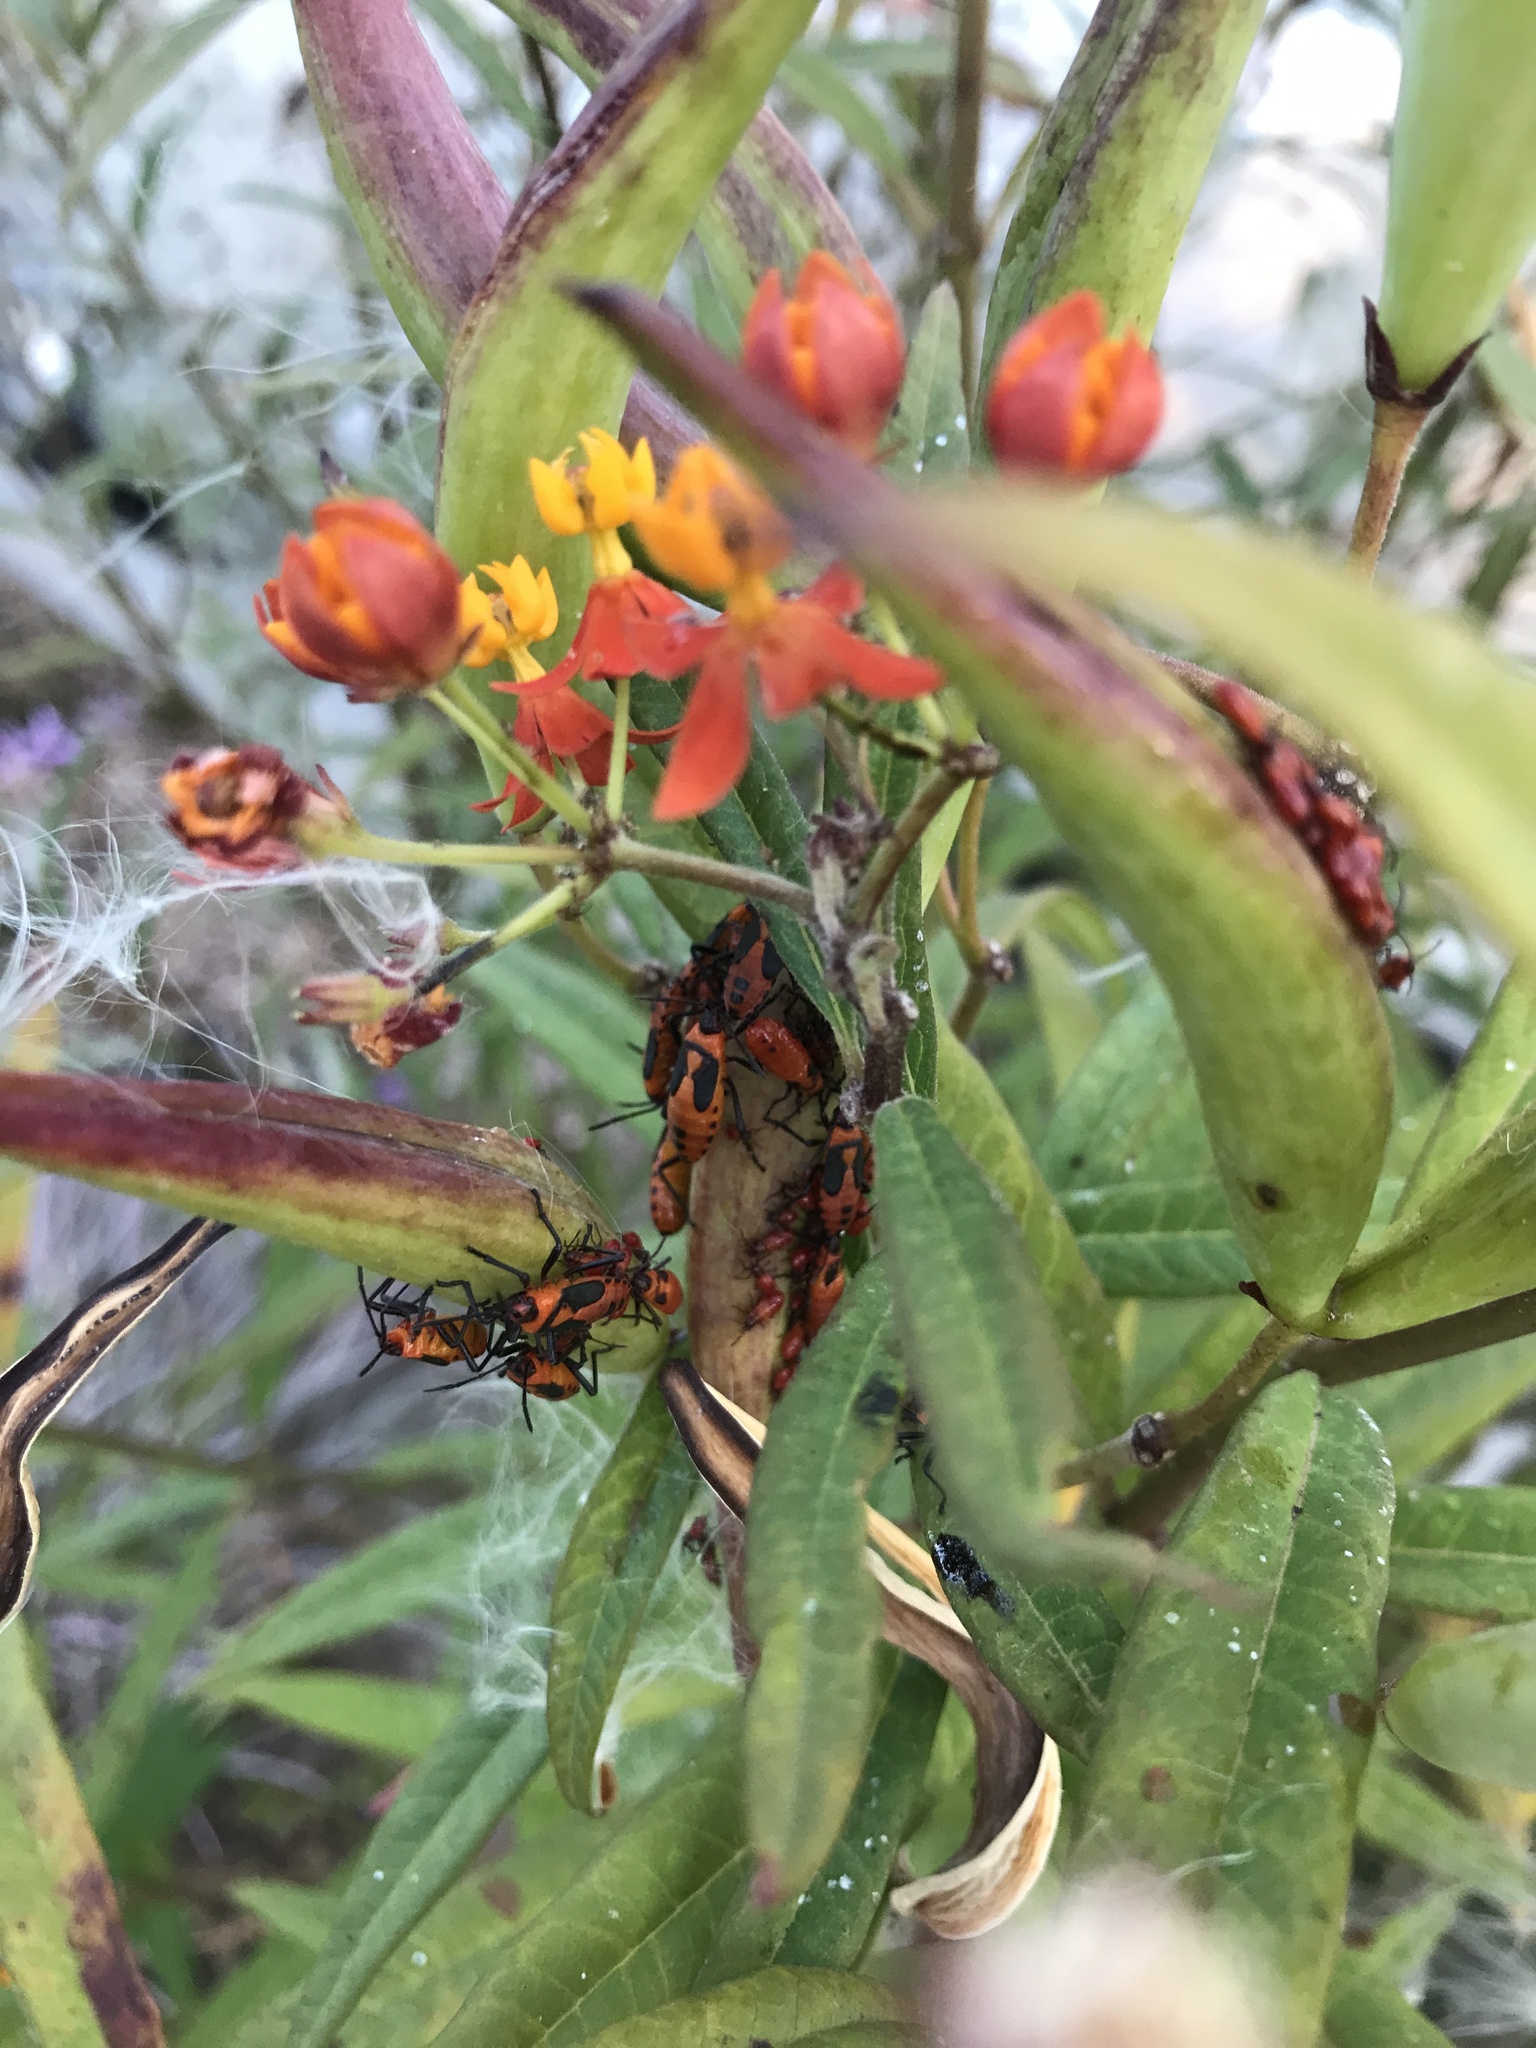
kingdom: Animalia
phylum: Arthropoda
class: Insecta
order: Hemiptera
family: Lygaeidae
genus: Oncopeltus
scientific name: Oncopeltus fasciatus
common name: Large milkweed bug
